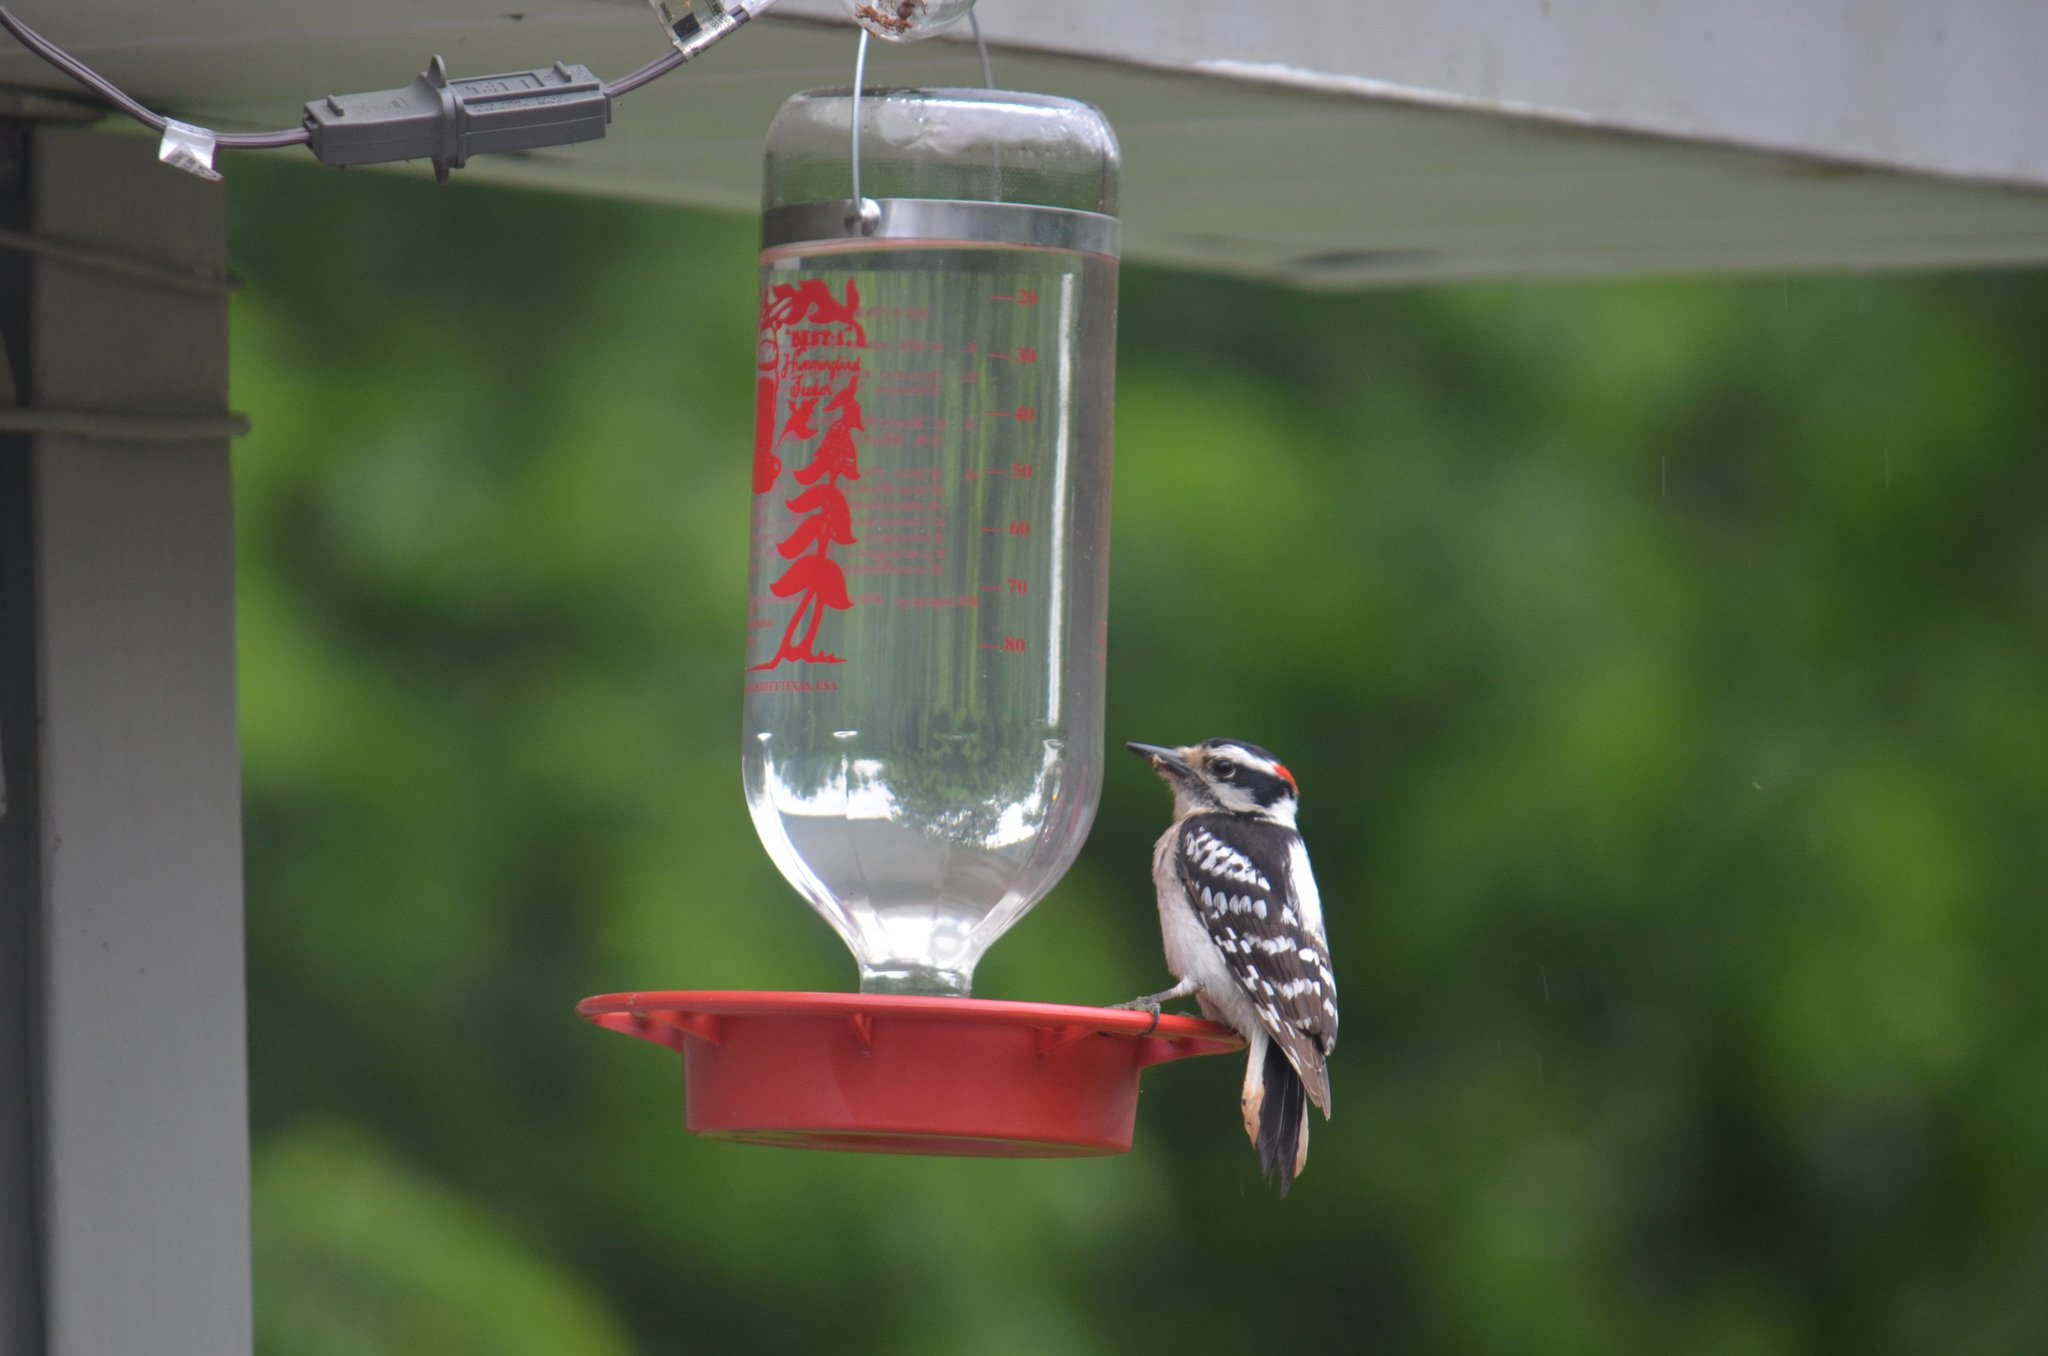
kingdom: Animalia
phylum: Chordata
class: Aves
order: Piciformes
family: Picidae
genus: Dryobates
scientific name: Dryobates pubescens
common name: Downy woodpecker
